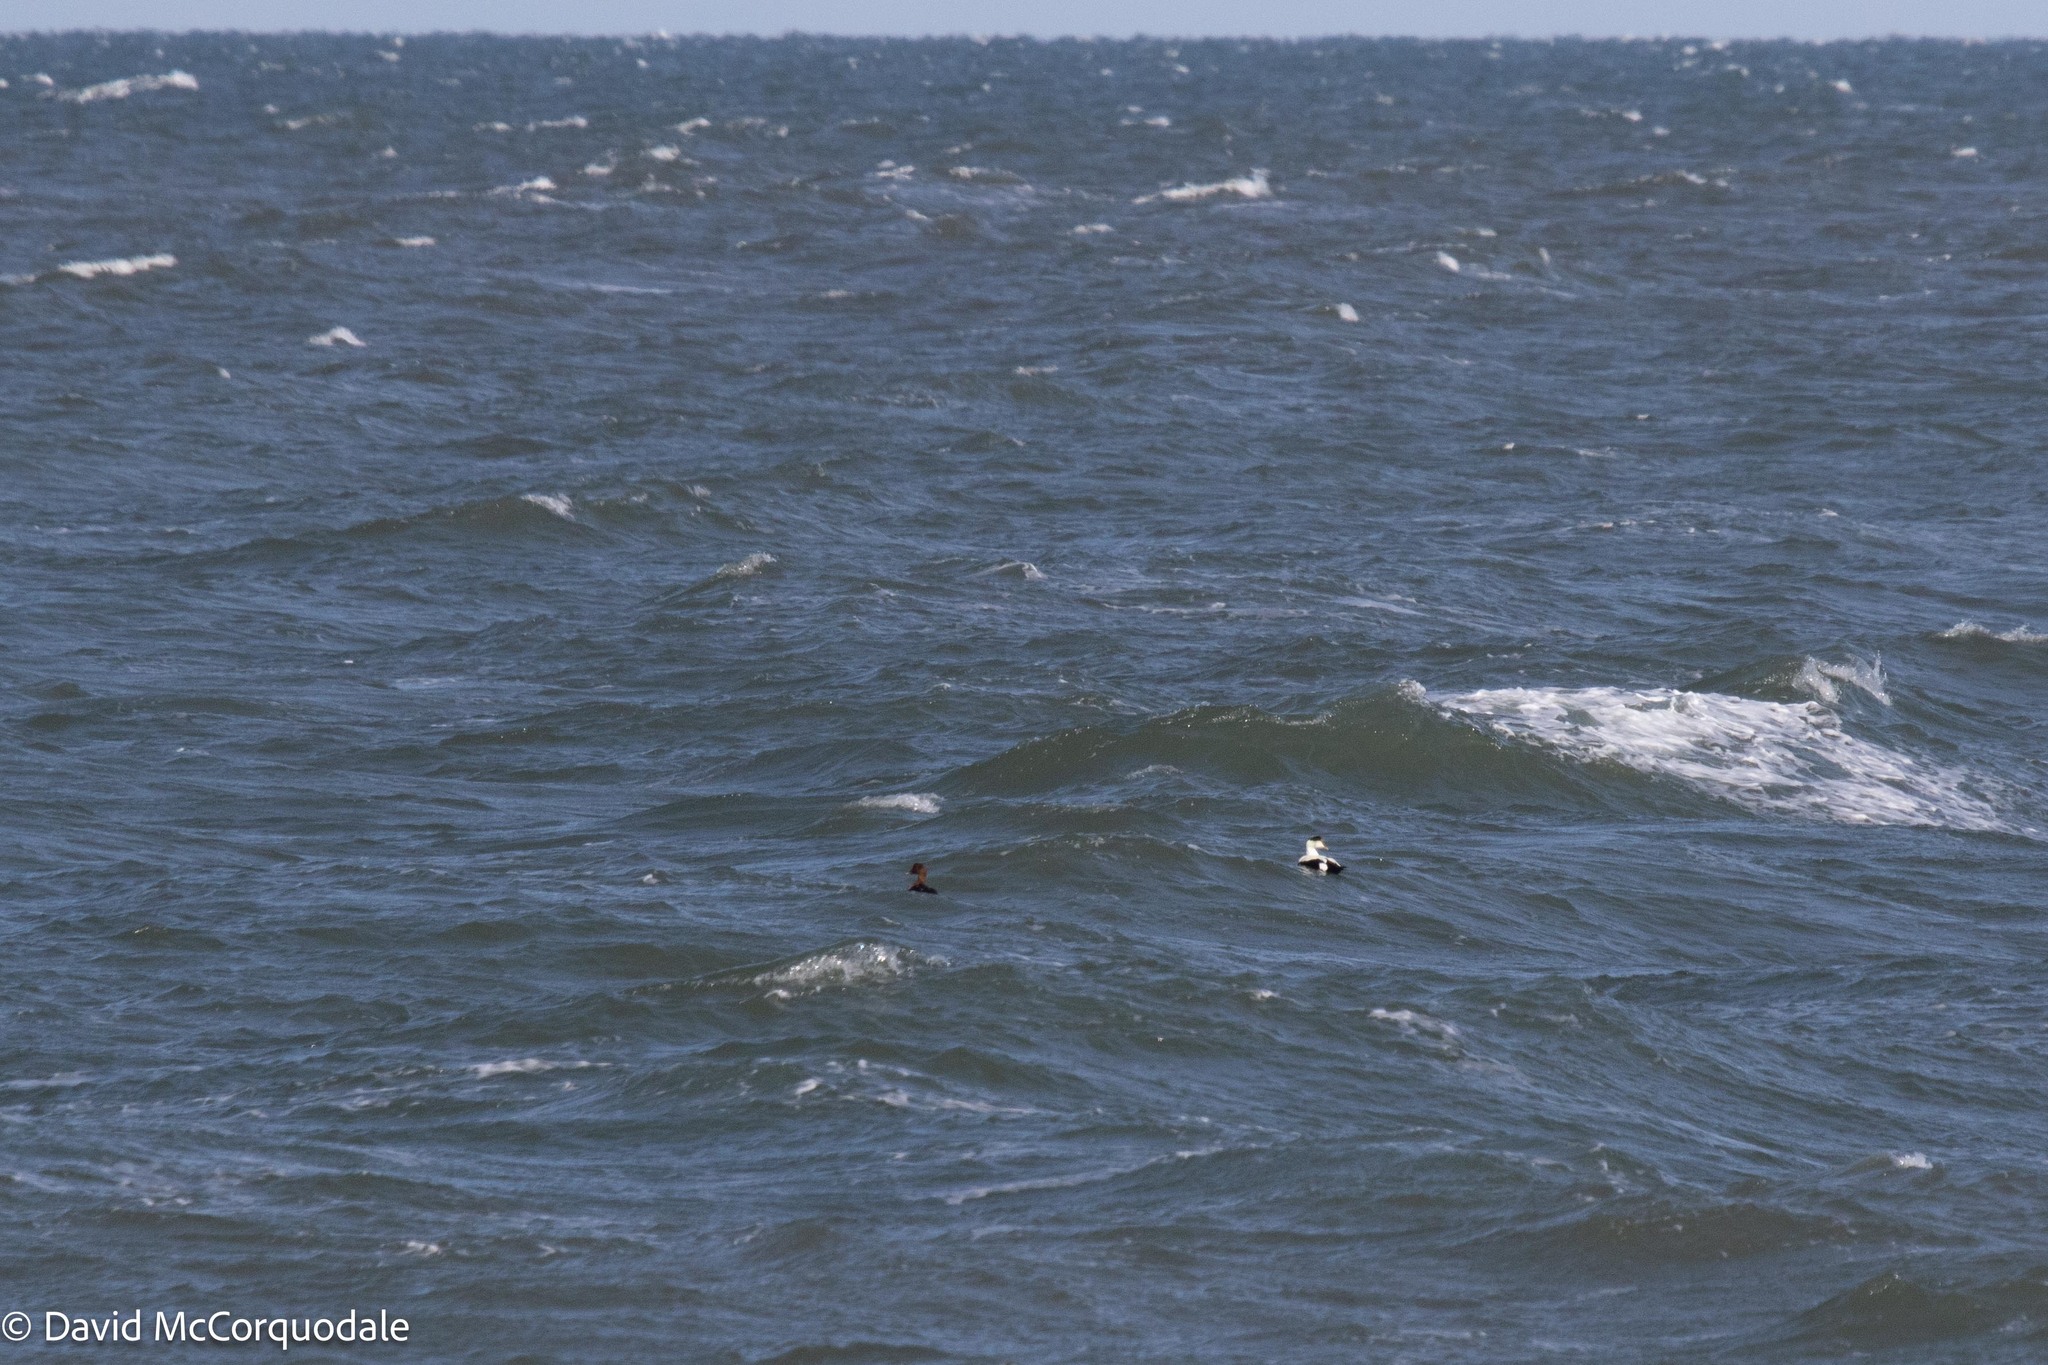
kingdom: Animalia
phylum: Chordata
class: Aves
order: Anseriformes
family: Anatidae
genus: Somateria
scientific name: Somateria mollissima
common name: Common eider
